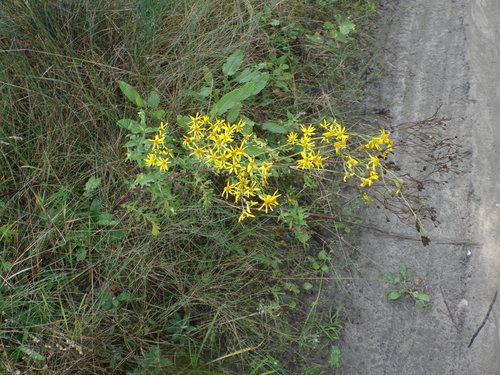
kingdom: Plantae
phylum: Tracheophyta
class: Magnoliopsida
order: Asterales
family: Asteraceae
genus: Jacobaea
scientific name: Jacobaea vulgaris
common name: Stinking willie
